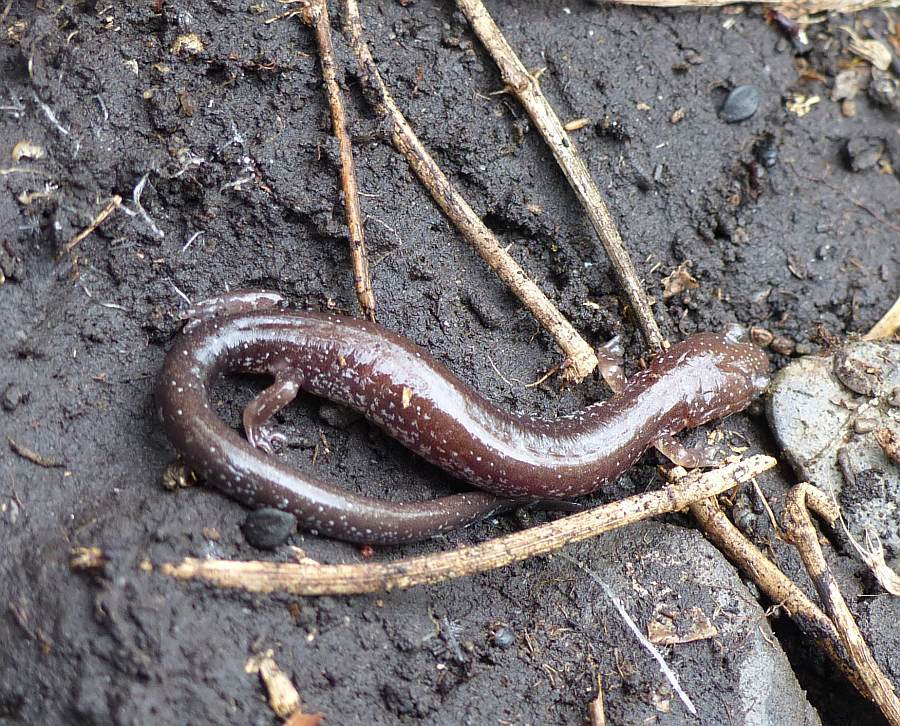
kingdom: Animalia
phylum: Chordata
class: Amphibia
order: Caudata
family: Plethodontidae
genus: Plethodon
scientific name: Plethodon cinereus
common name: Redback salamander
